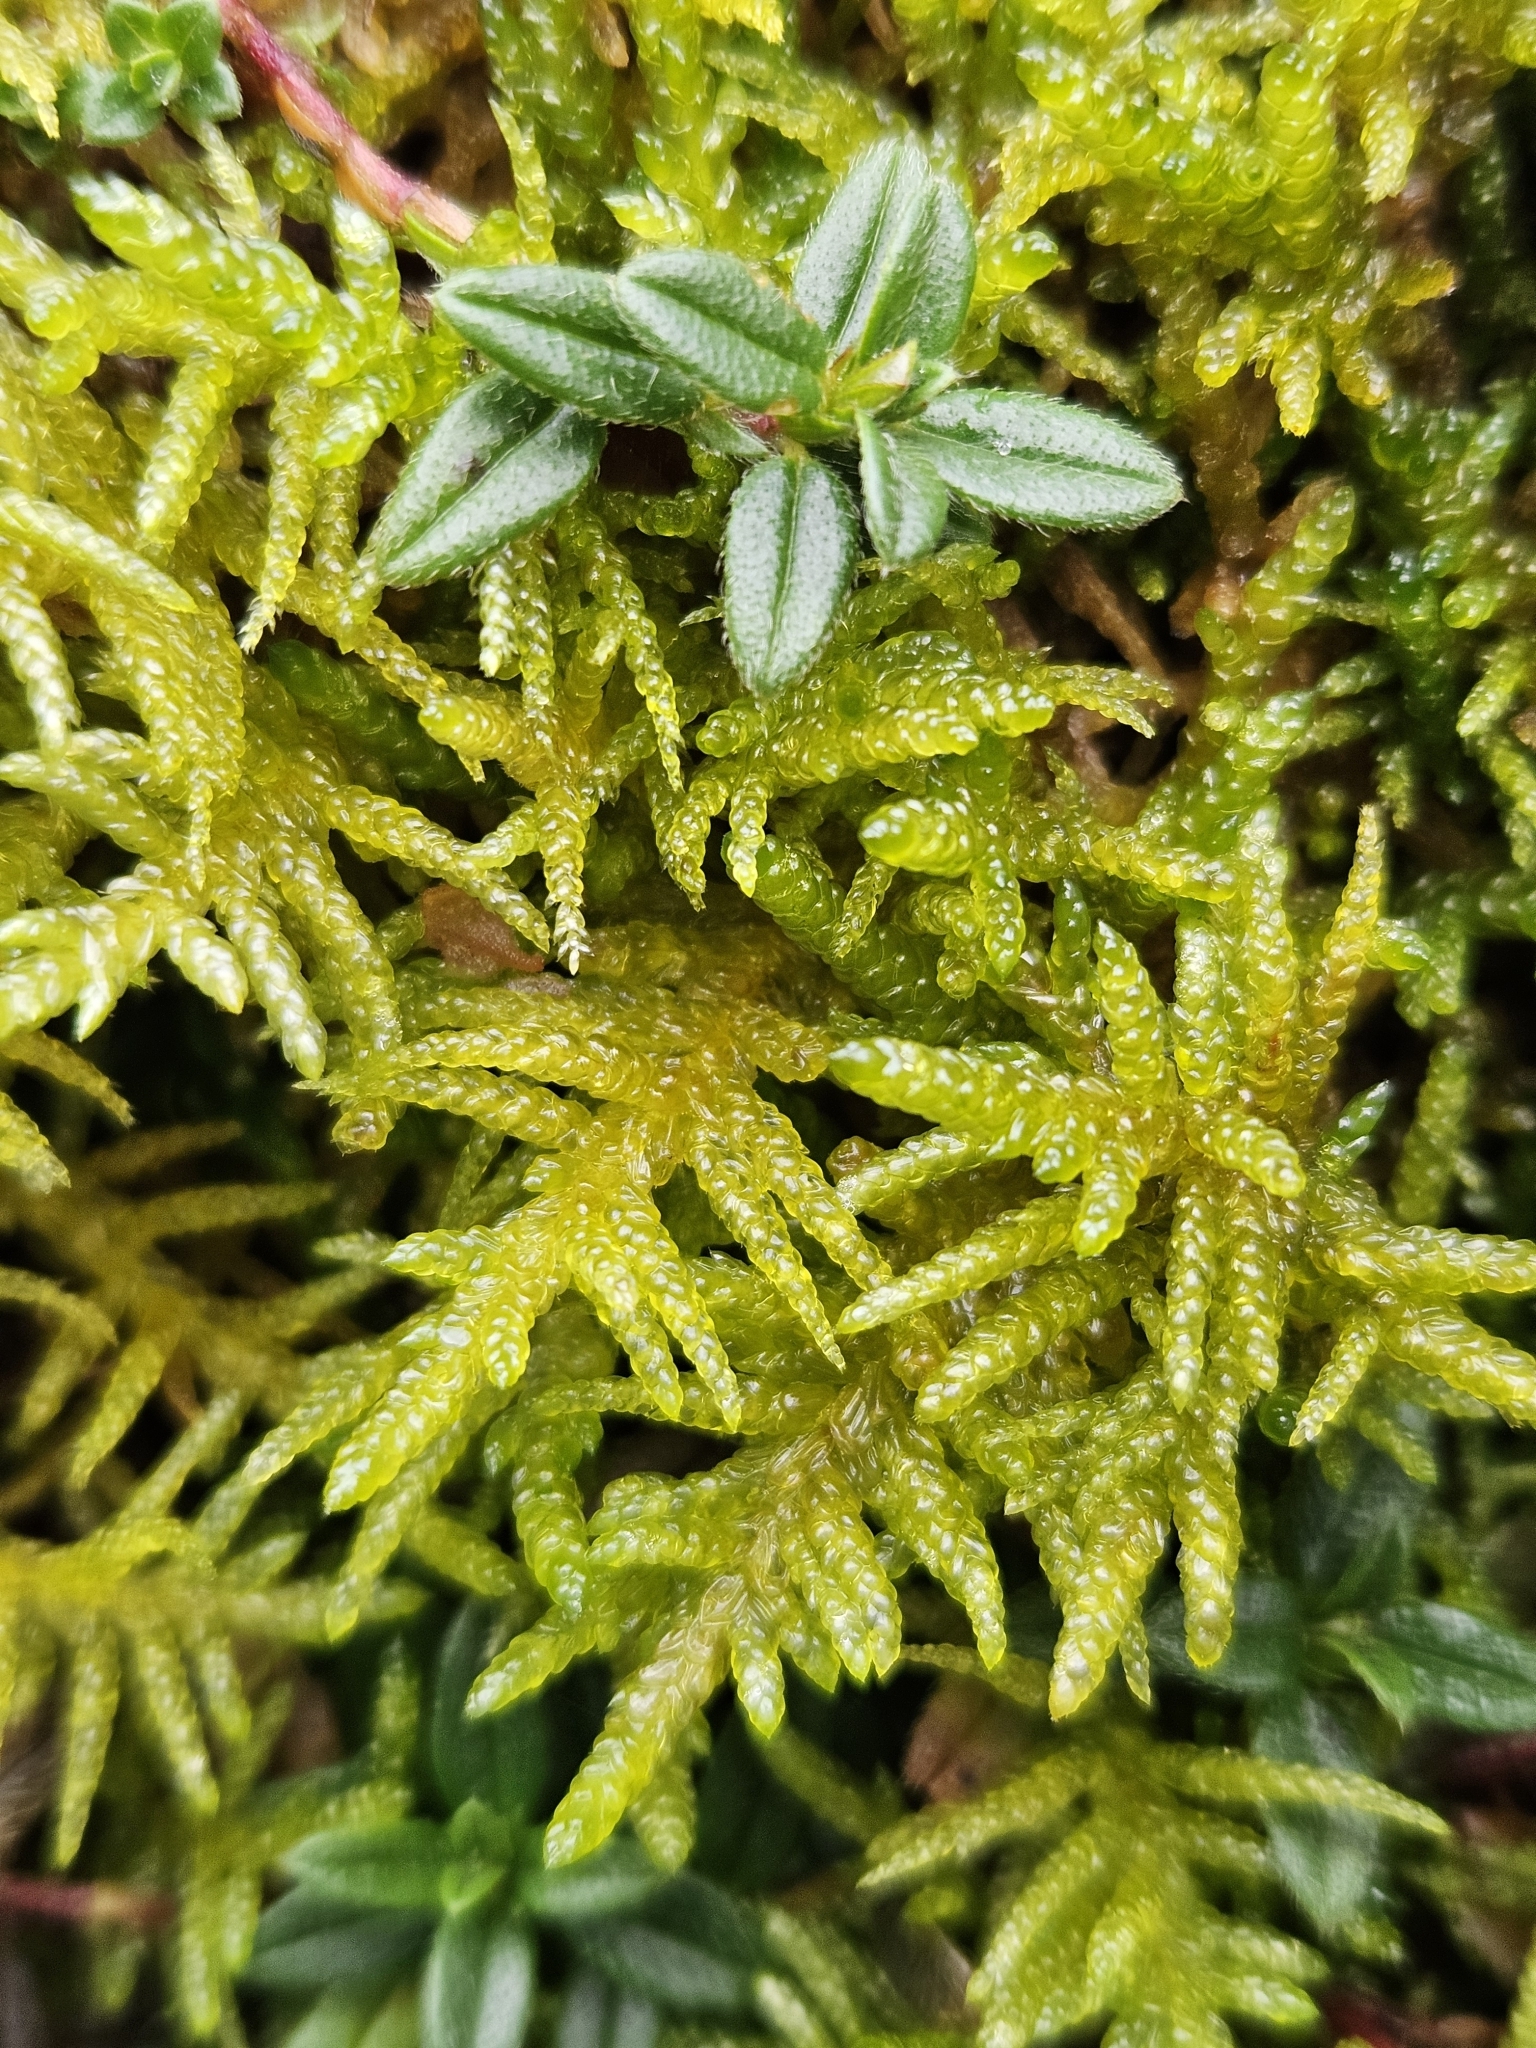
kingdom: Plantae
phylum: Bryophyta
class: Bryopsida
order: Hypnales
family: Brachytheciaceae
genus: Pseudoscleropodium
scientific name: Pseudoscleropodium purum
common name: Neat feather-moss
